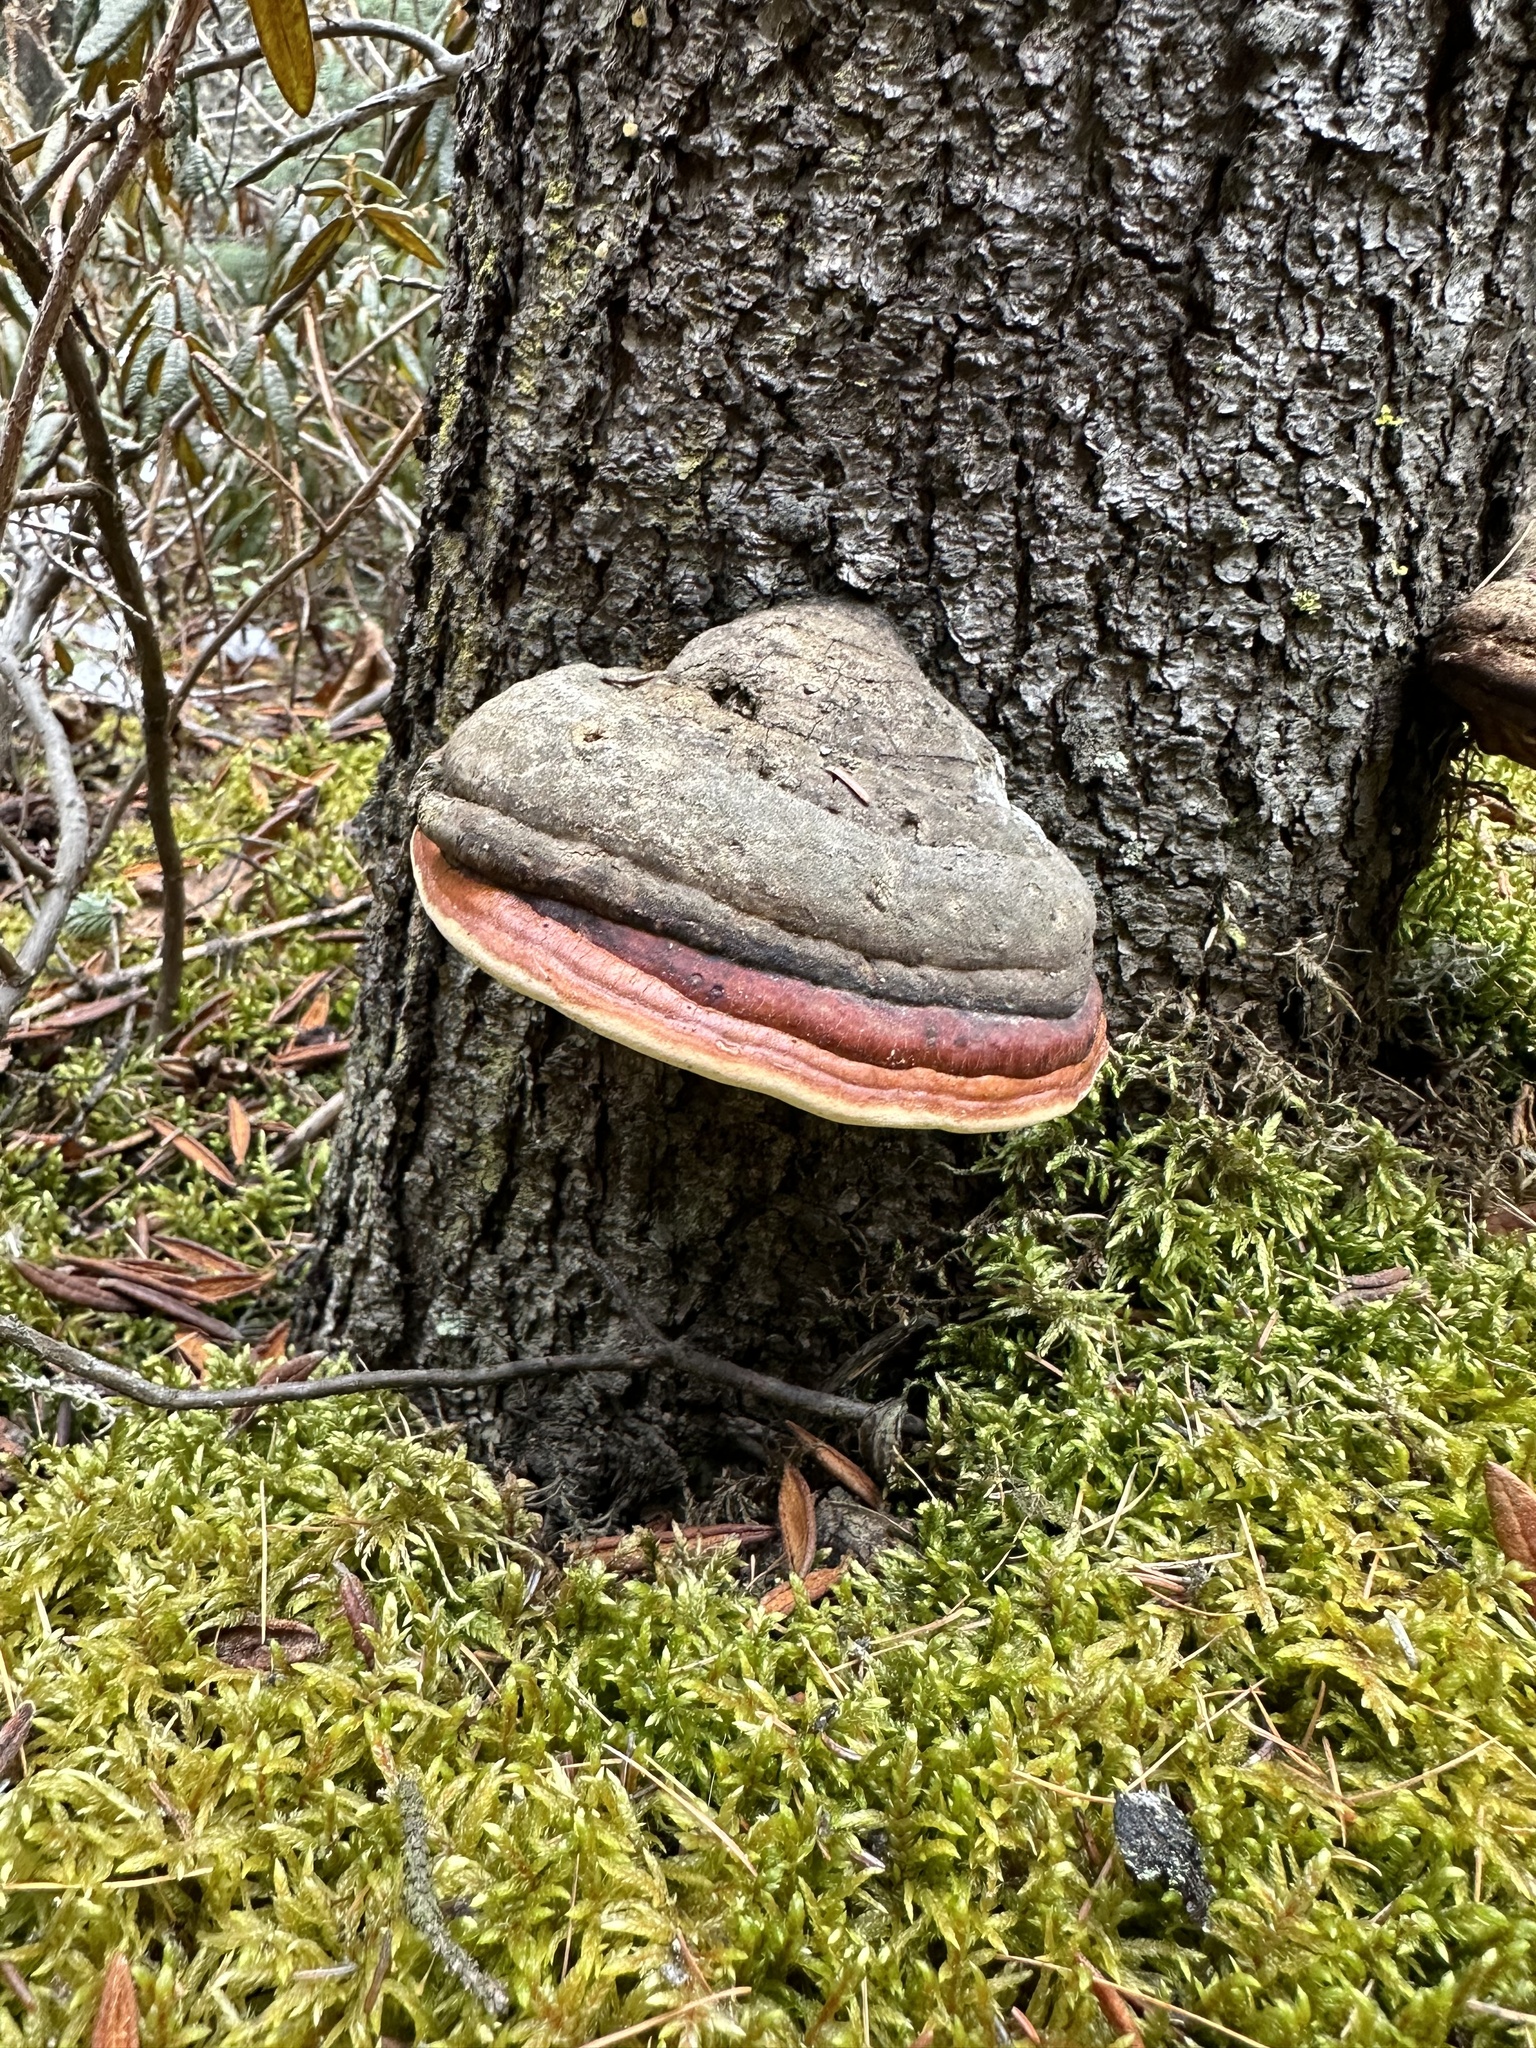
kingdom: Fungi
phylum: Basidiomycota
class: Agaricomycetes
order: Polyporales
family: Fomitopsidaceae
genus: Fomitopsis
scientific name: Fomitopsis mounceae
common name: Northern red belt
